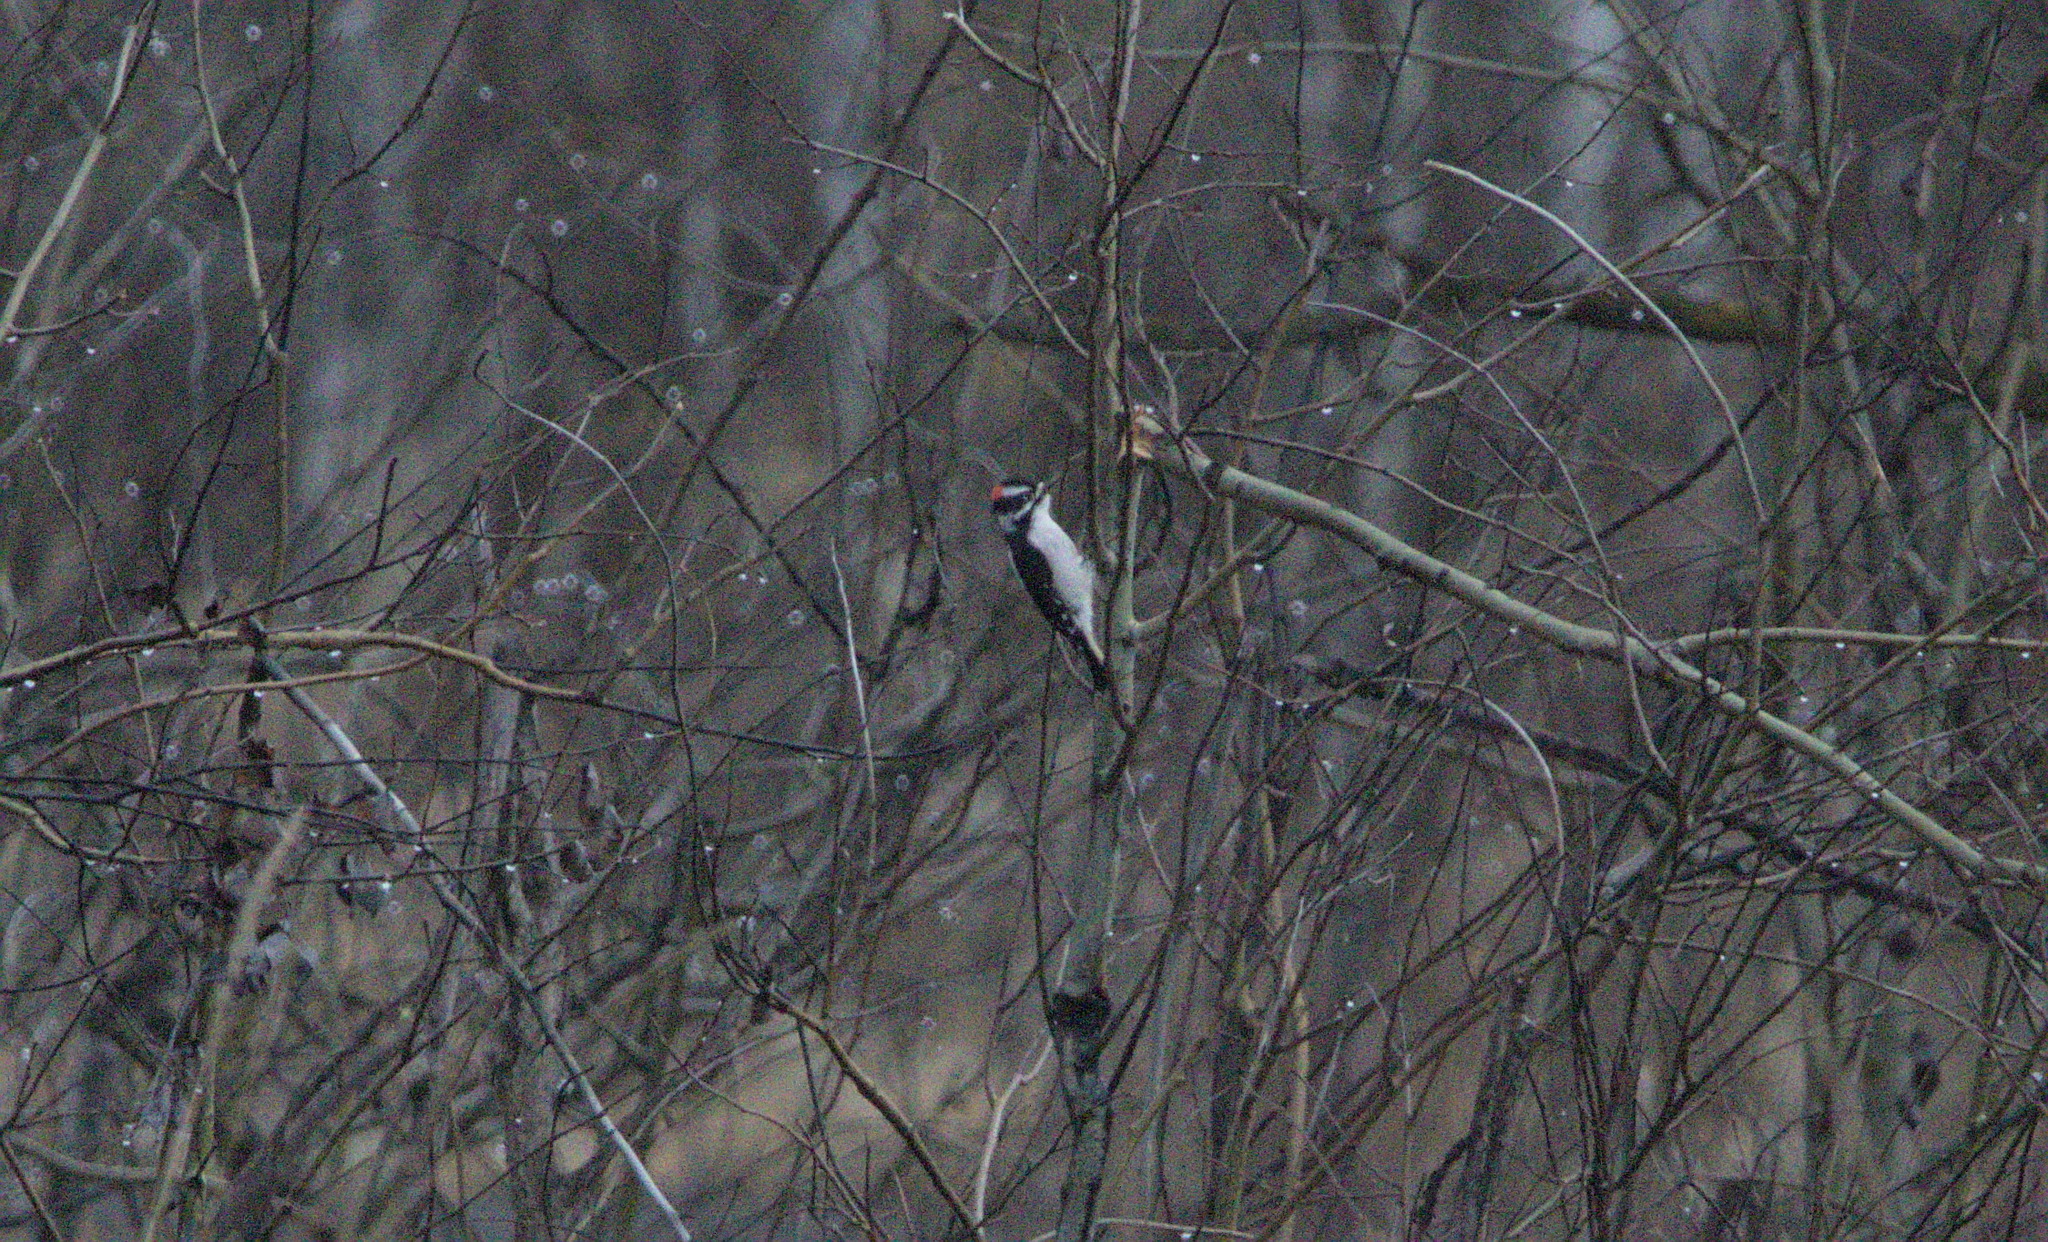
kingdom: Animalia
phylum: Chordata
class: Aves
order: Piciformes
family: Picidae
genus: Dryobates
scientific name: Dryobates pubescens
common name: Downy woodpecker
